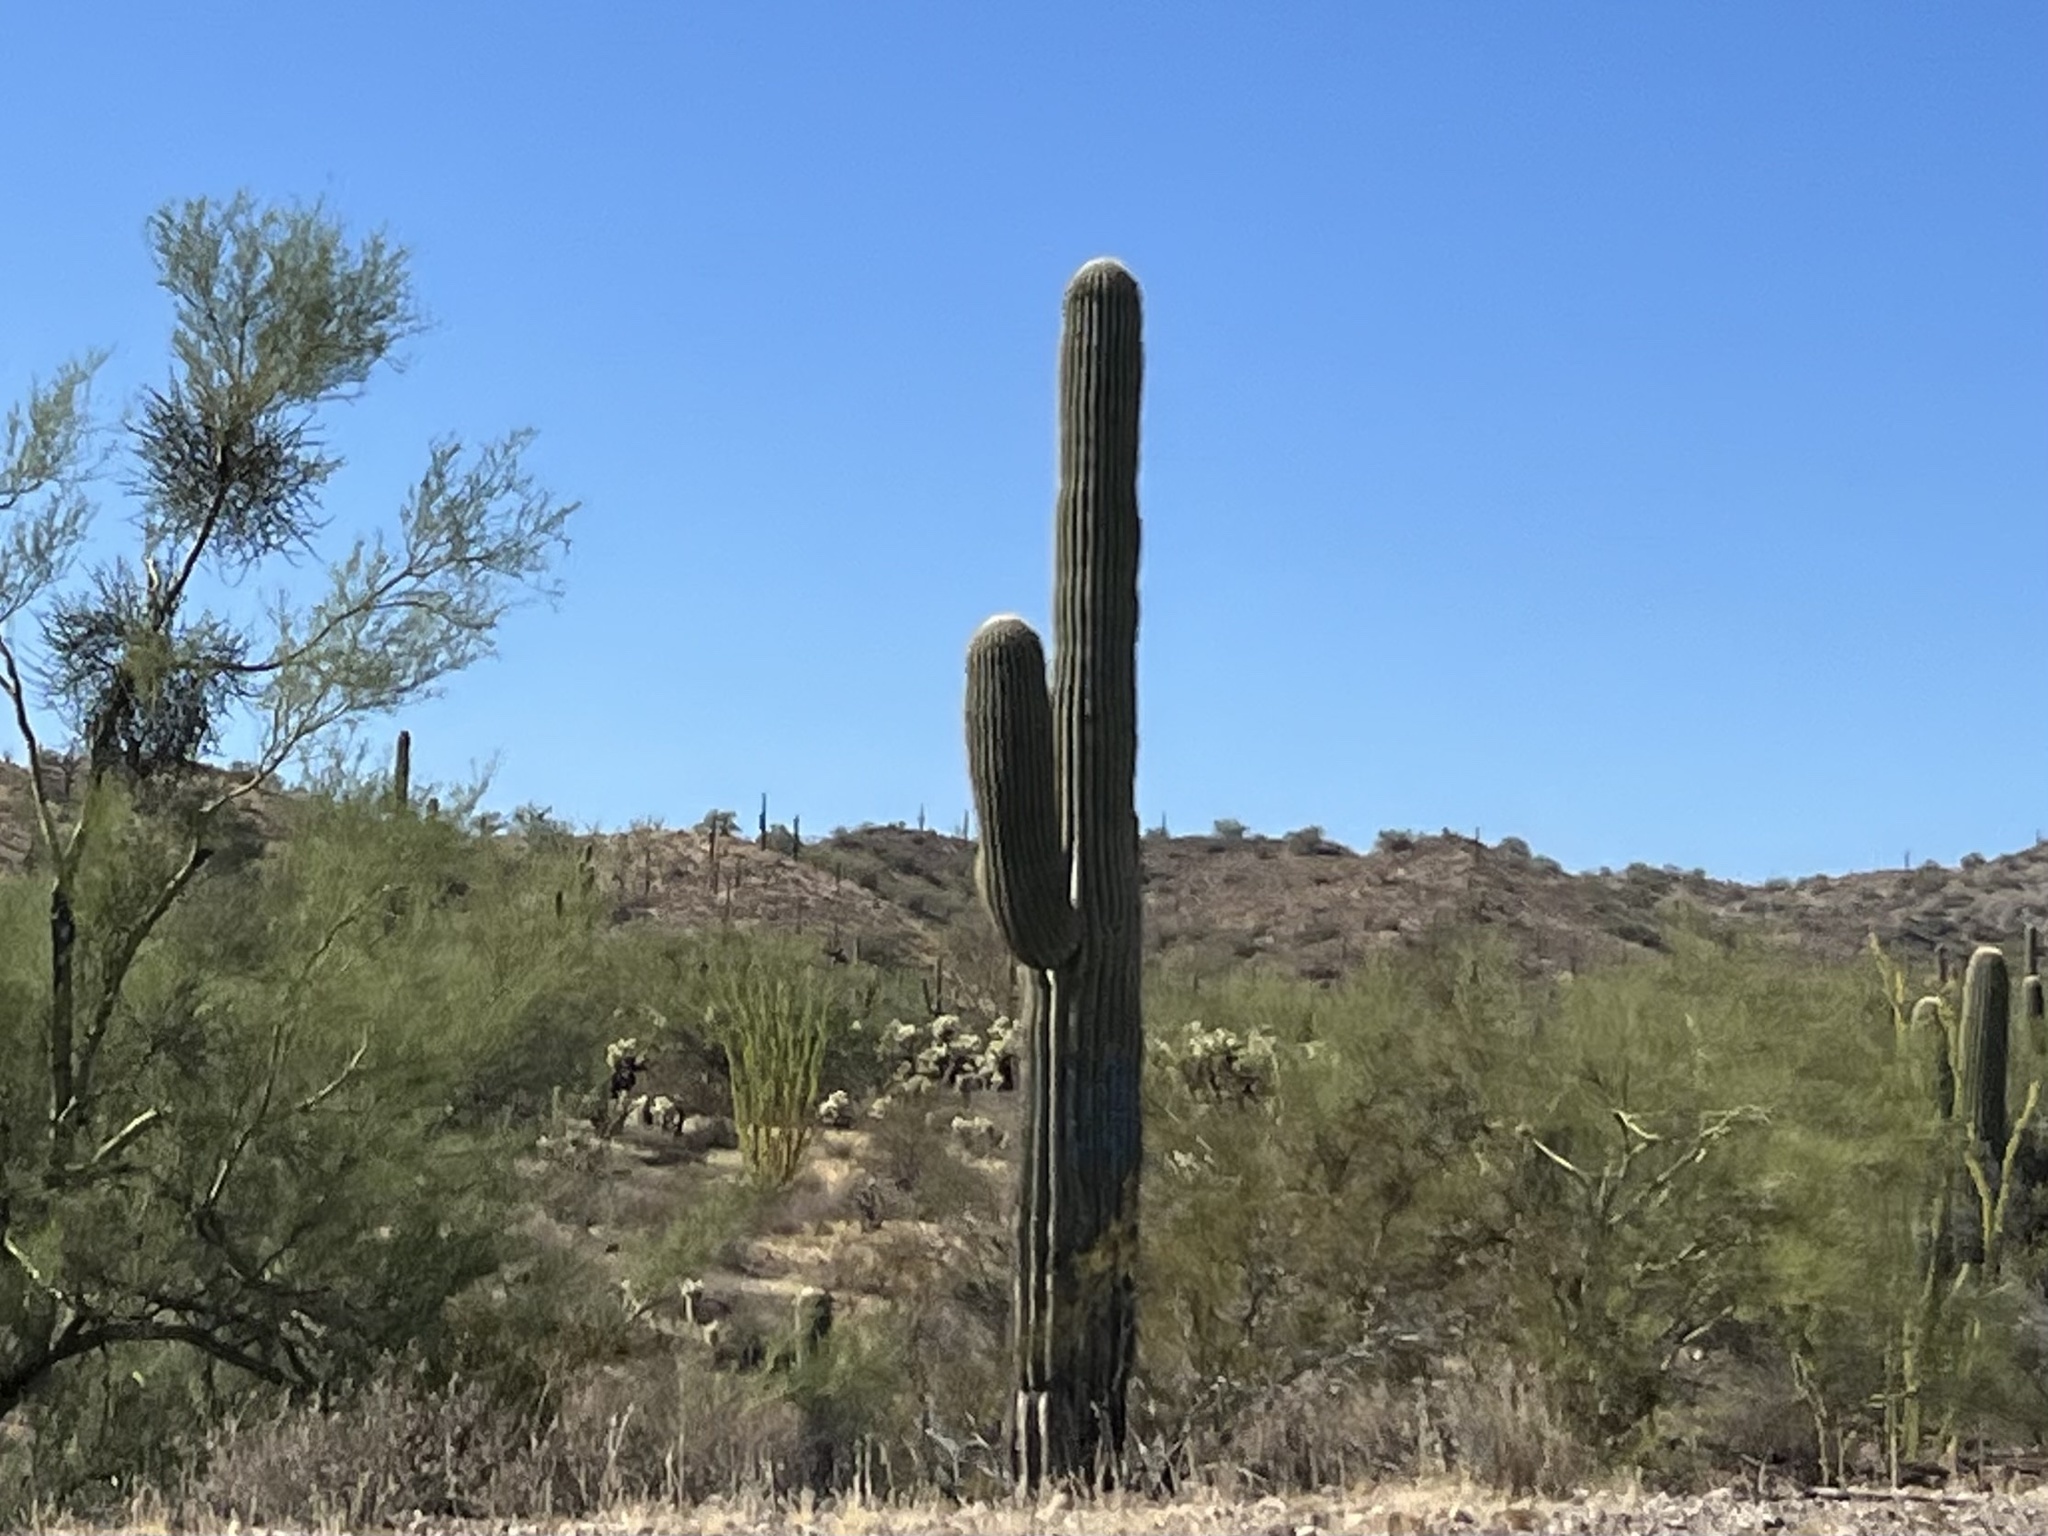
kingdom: Plantae
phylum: Tracheophyta
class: Magnoliopsida
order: Caryophyllales
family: Cactaceae
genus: Carnegiea
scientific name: Carnegiea gigantea
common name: Saguaro
